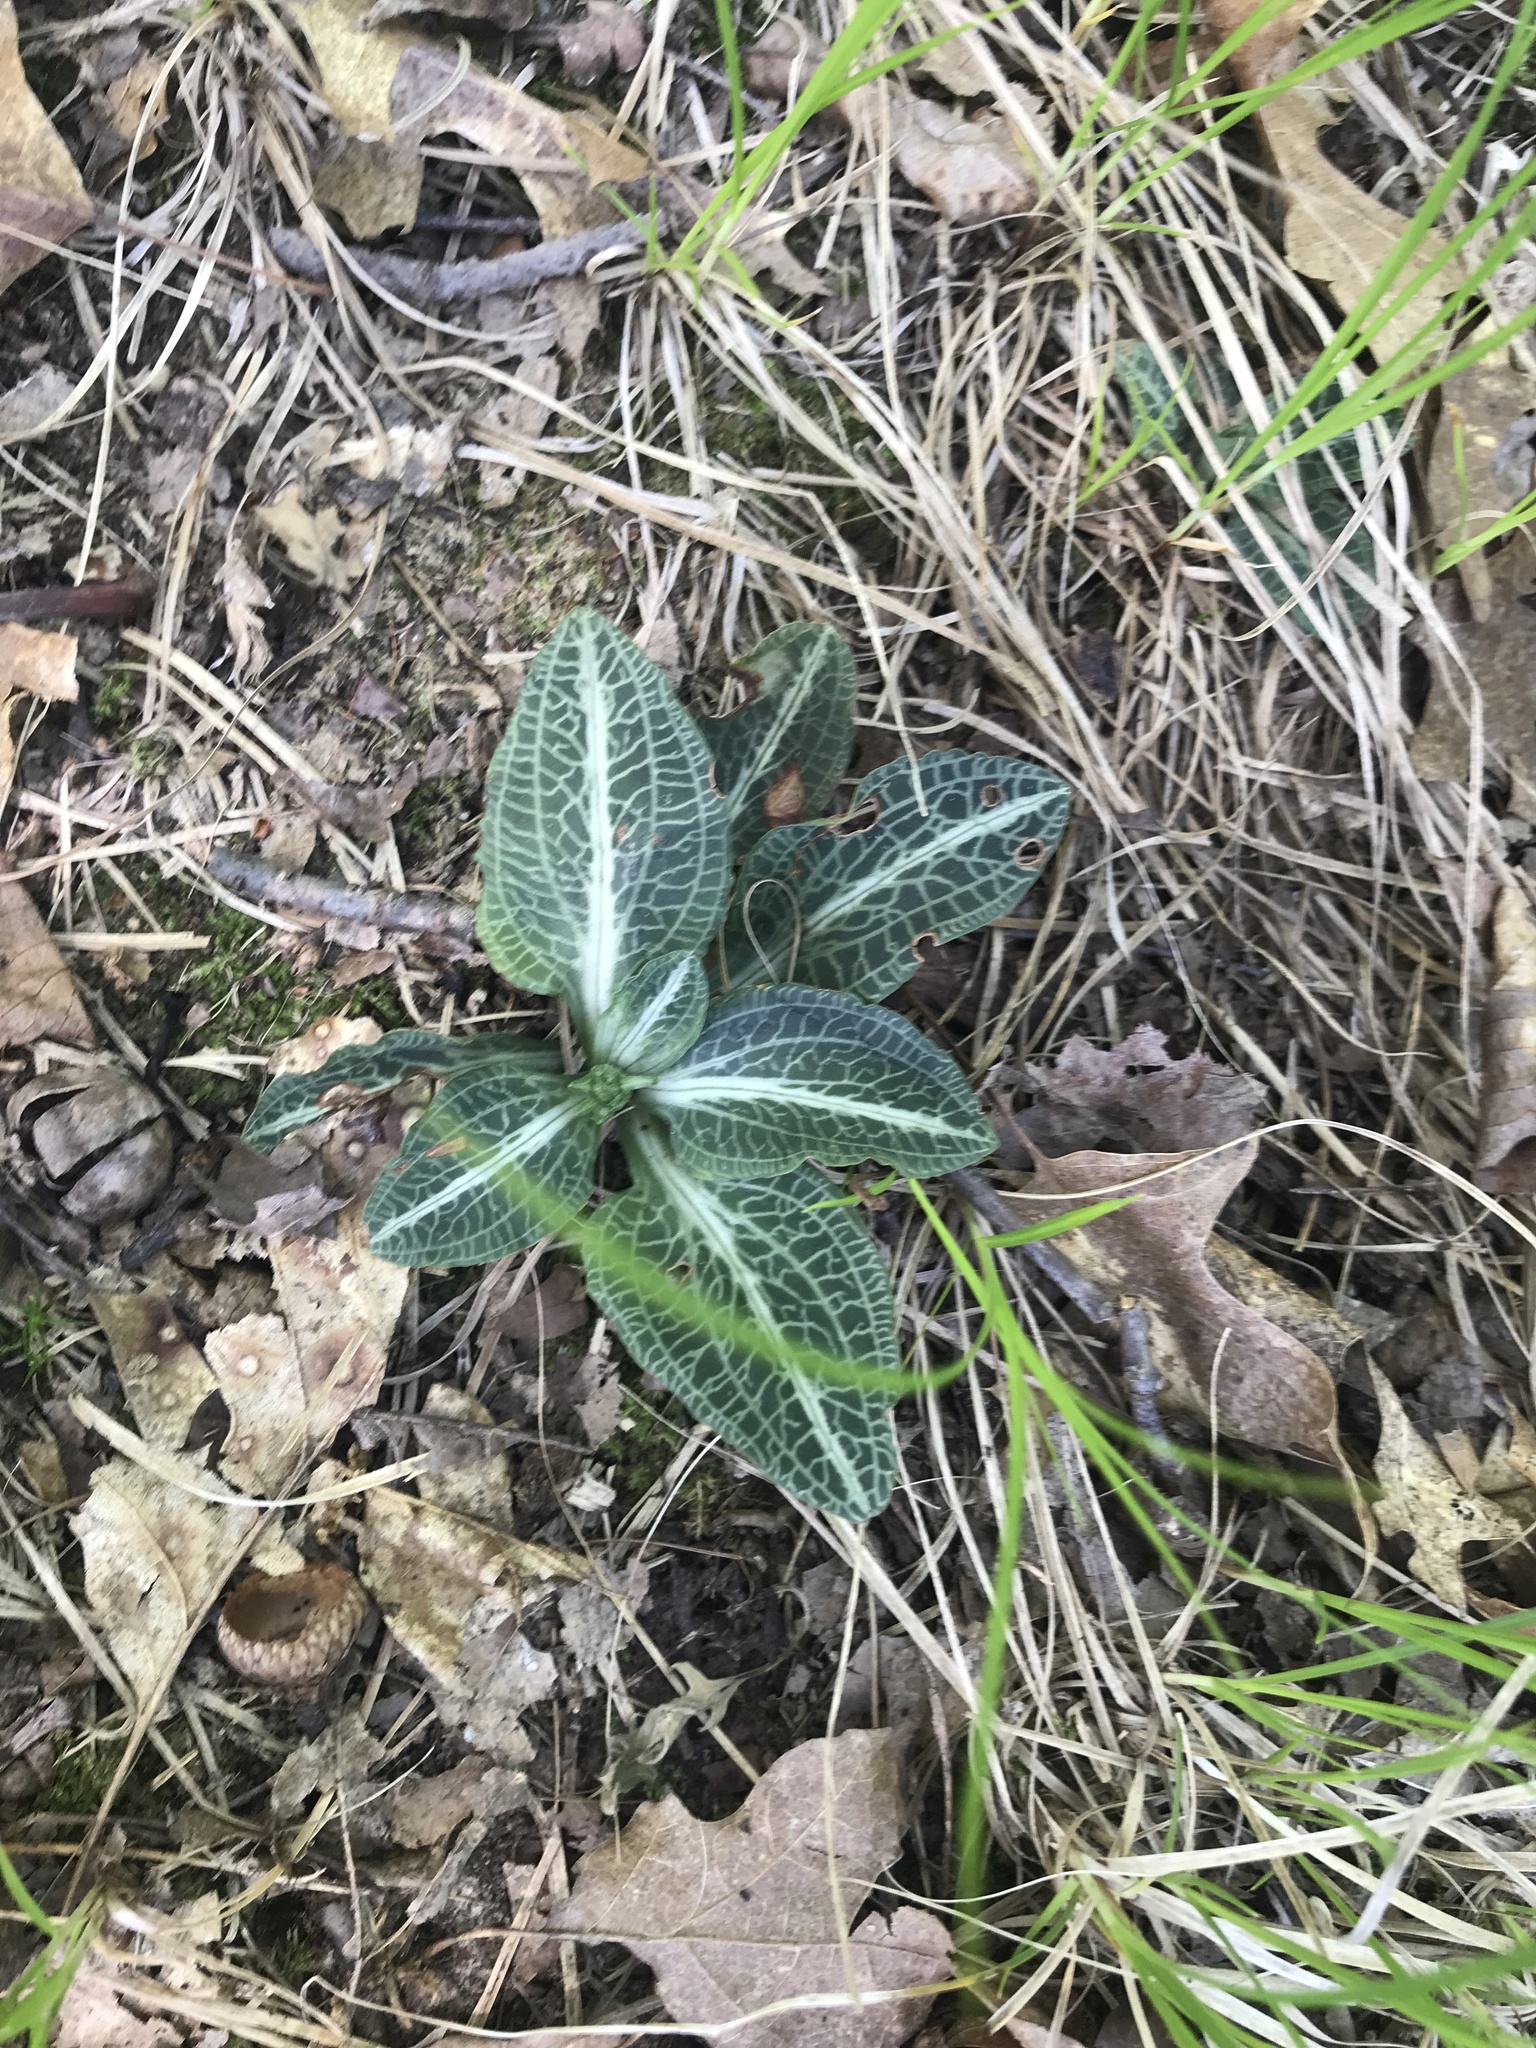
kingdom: Plantae
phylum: Tracheophyta
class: Liliopsida
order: Asparagales
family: Orchidaceae
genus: Goodyera
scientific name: Goodyera pubescens
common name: Downy rattlesnake-plantain
